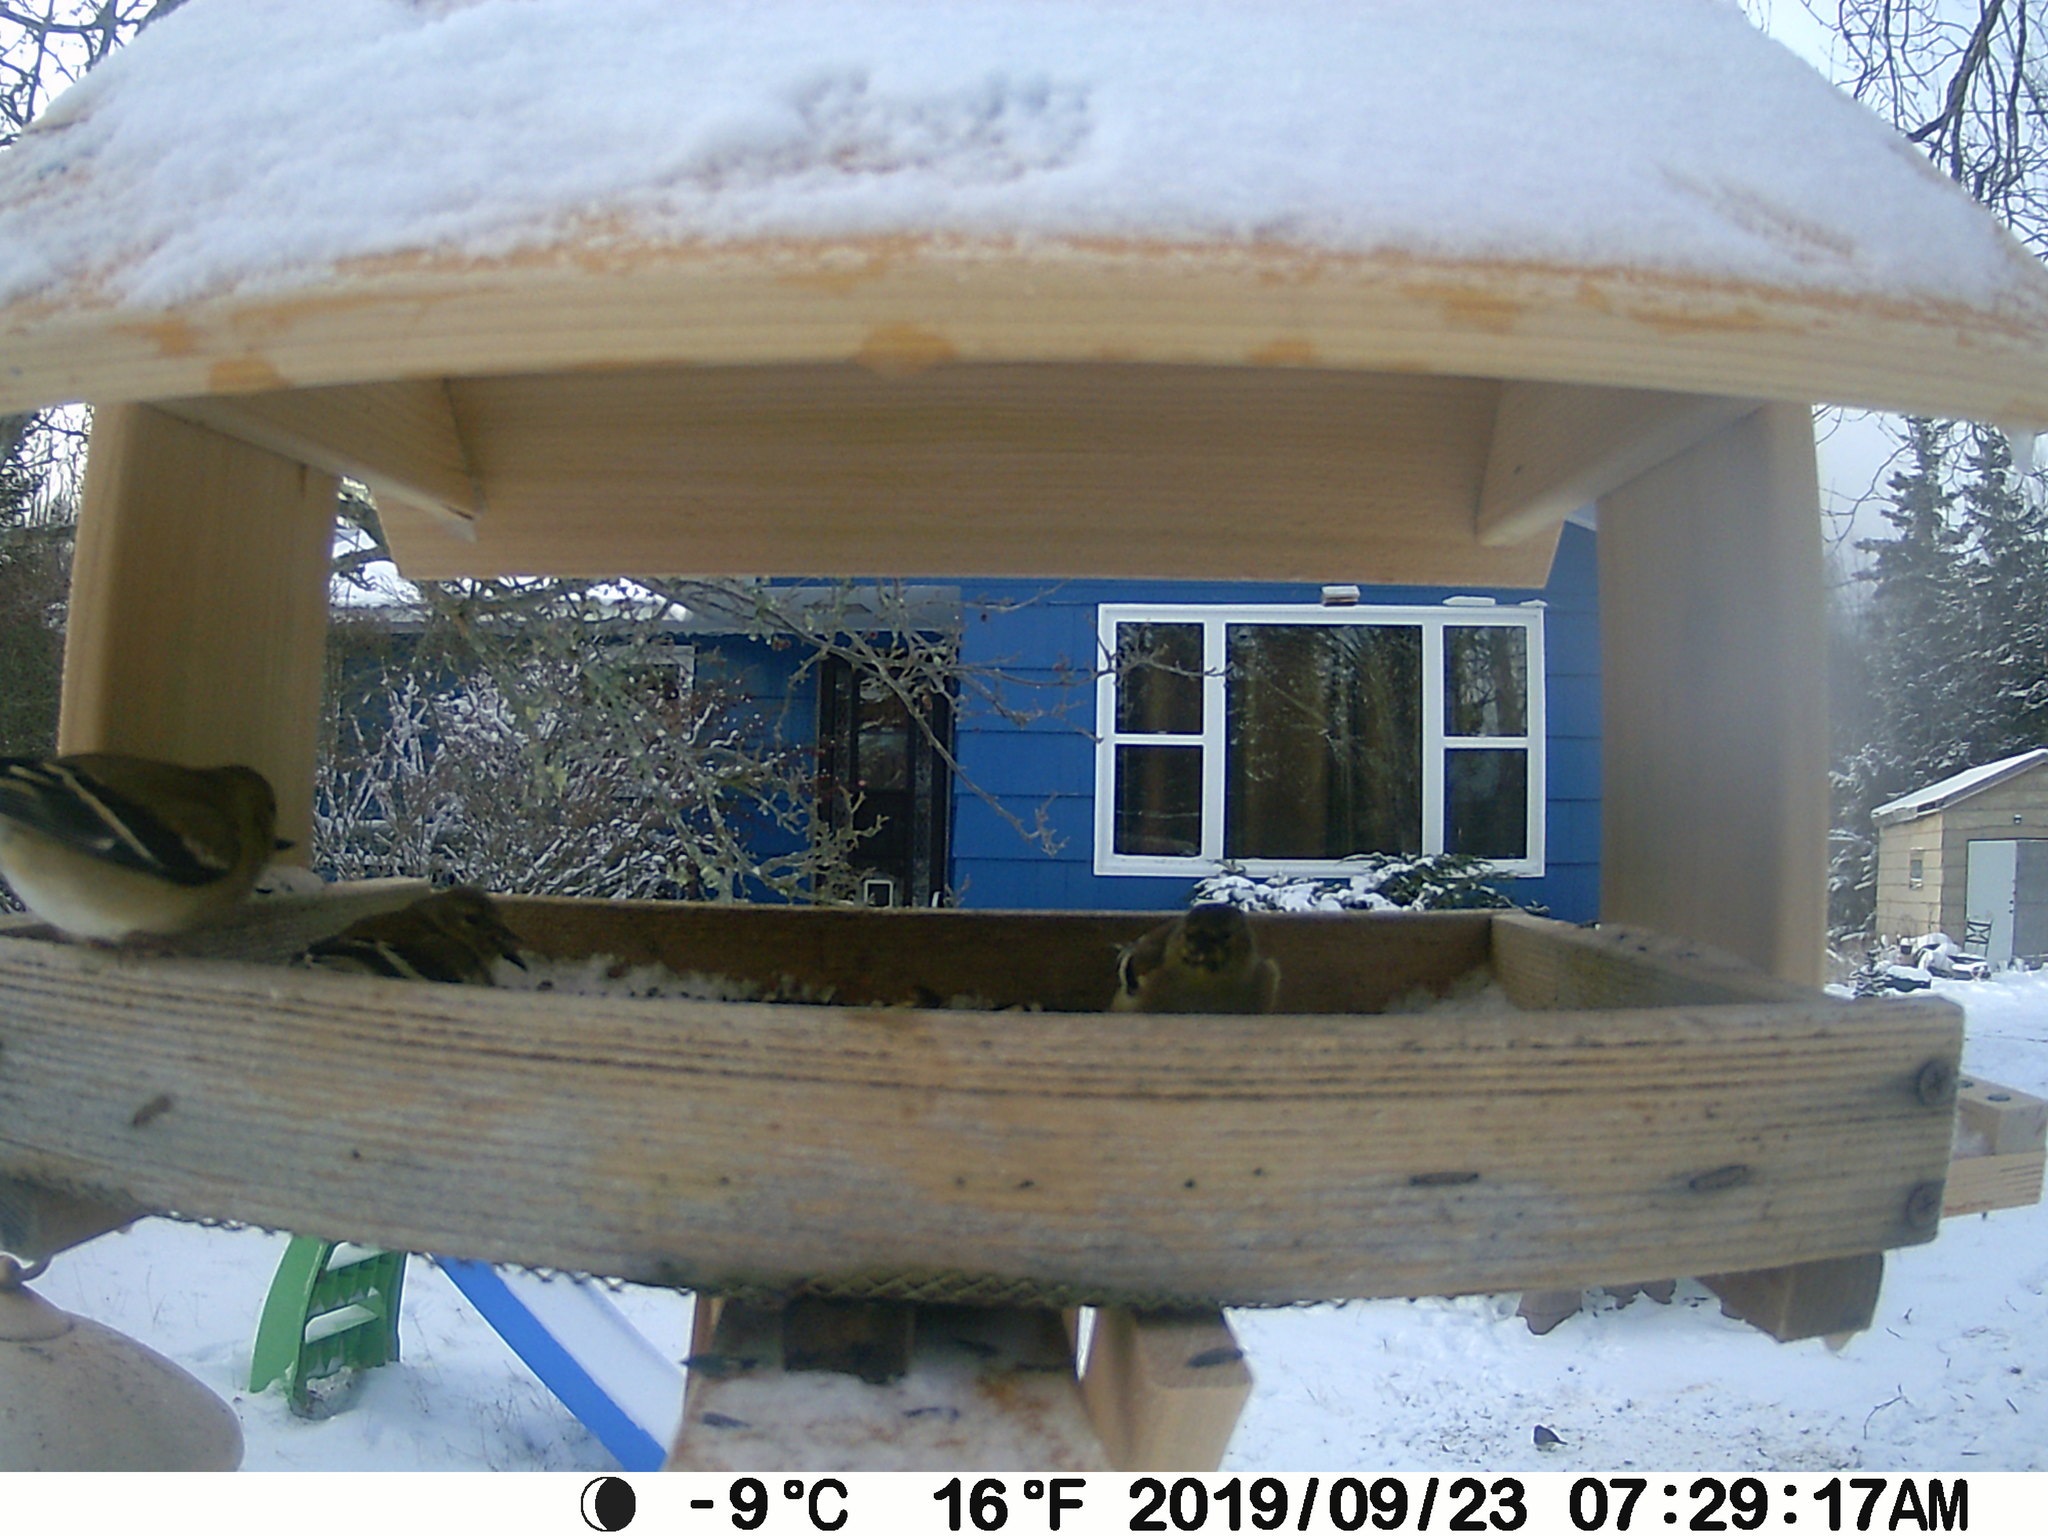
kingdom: Animalia
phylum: Chordata
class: Aves
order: Passeriformes
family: Passerellidae
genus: Junco
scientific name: Junco hyemalis
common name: Dark-eyed junco
